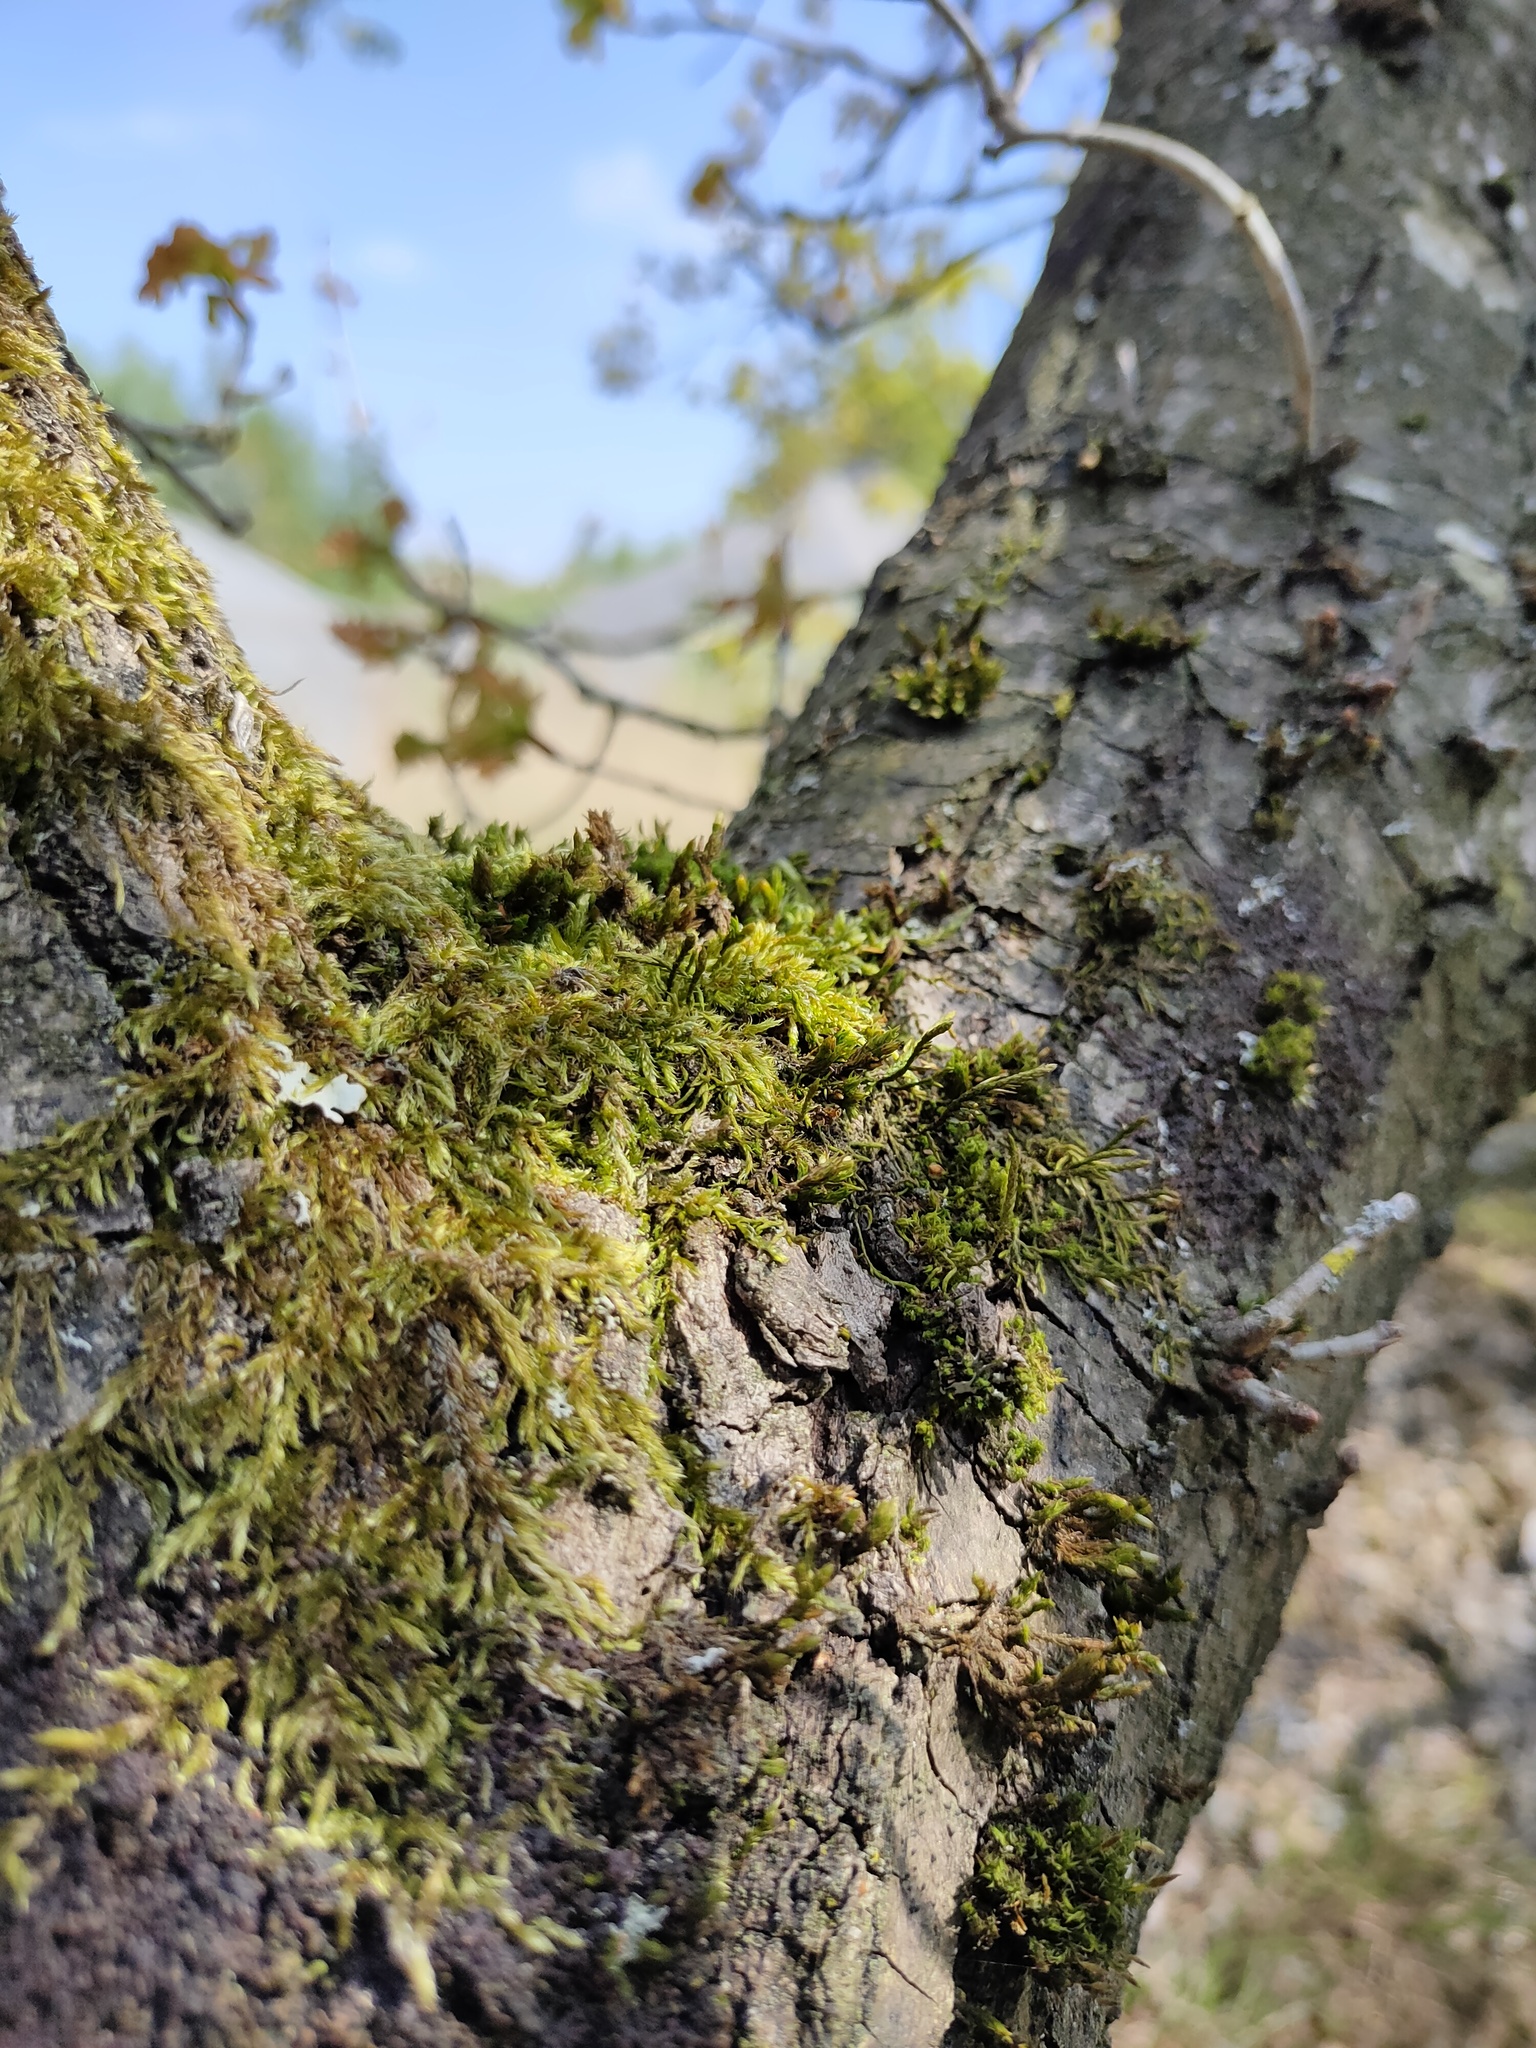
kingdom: Plantae
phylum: Bryophyta
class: Bryopsida
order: Hypnales
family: Cryphaeaceae
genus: Cryphaea
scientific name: Cryphaea heteromalla
